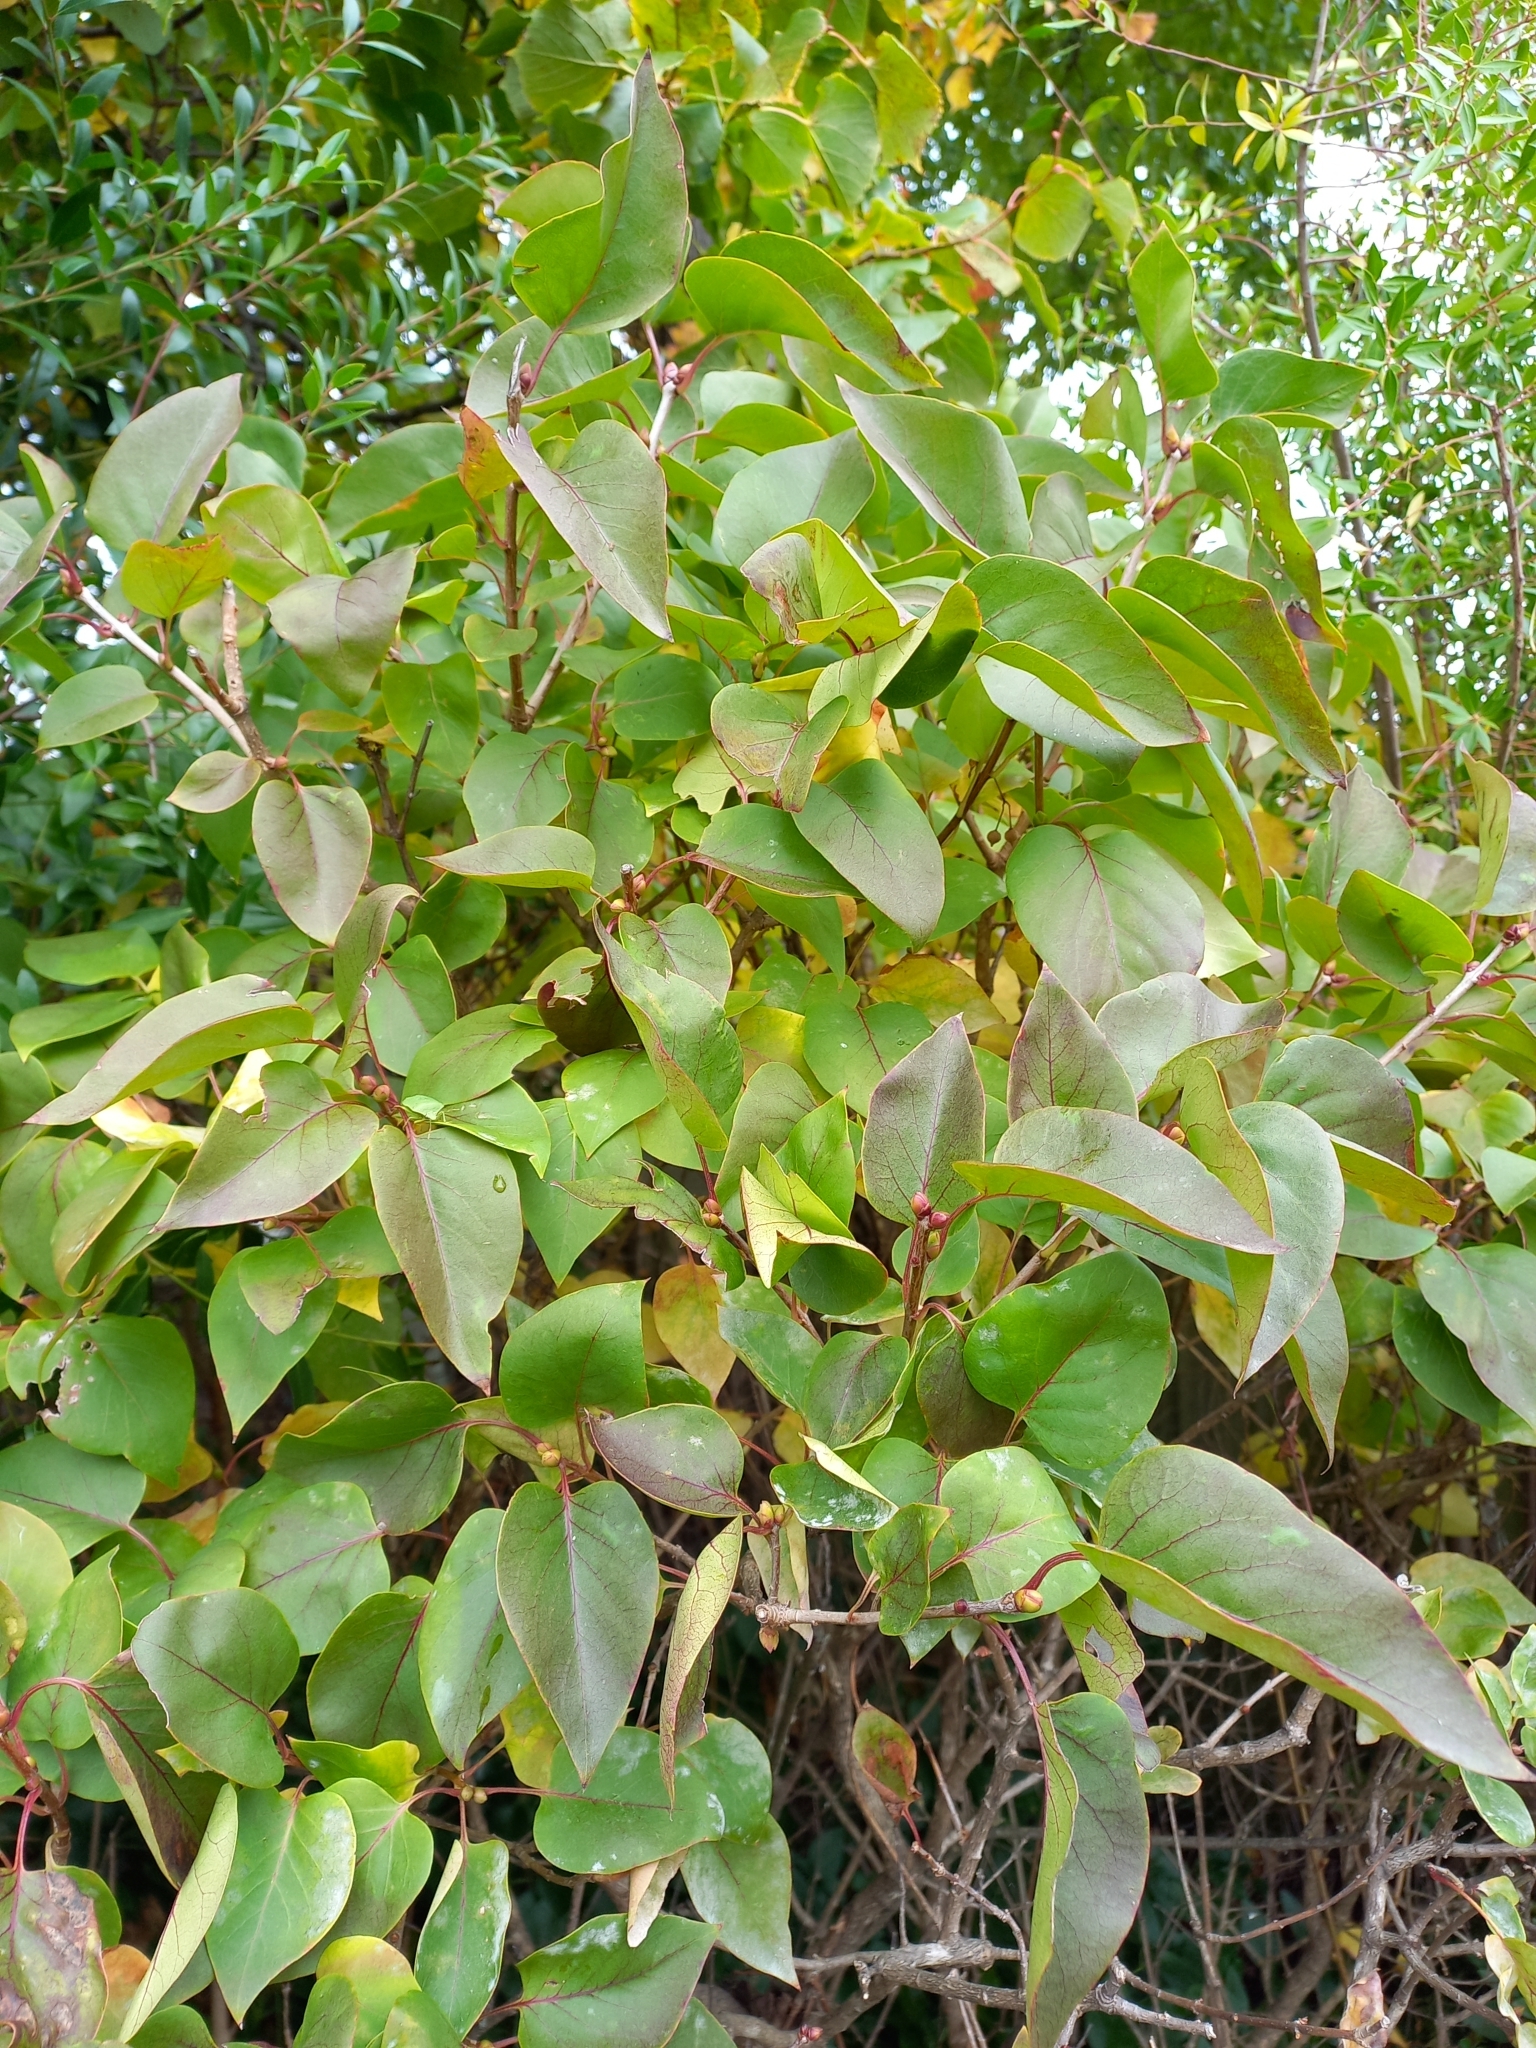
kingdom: Plantae
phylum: Tracheophyta
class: Magnoliopsida
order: Lamiales
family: Oleaceae
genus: Syringa
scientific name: Syringa vulgaris
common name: Common lilac
